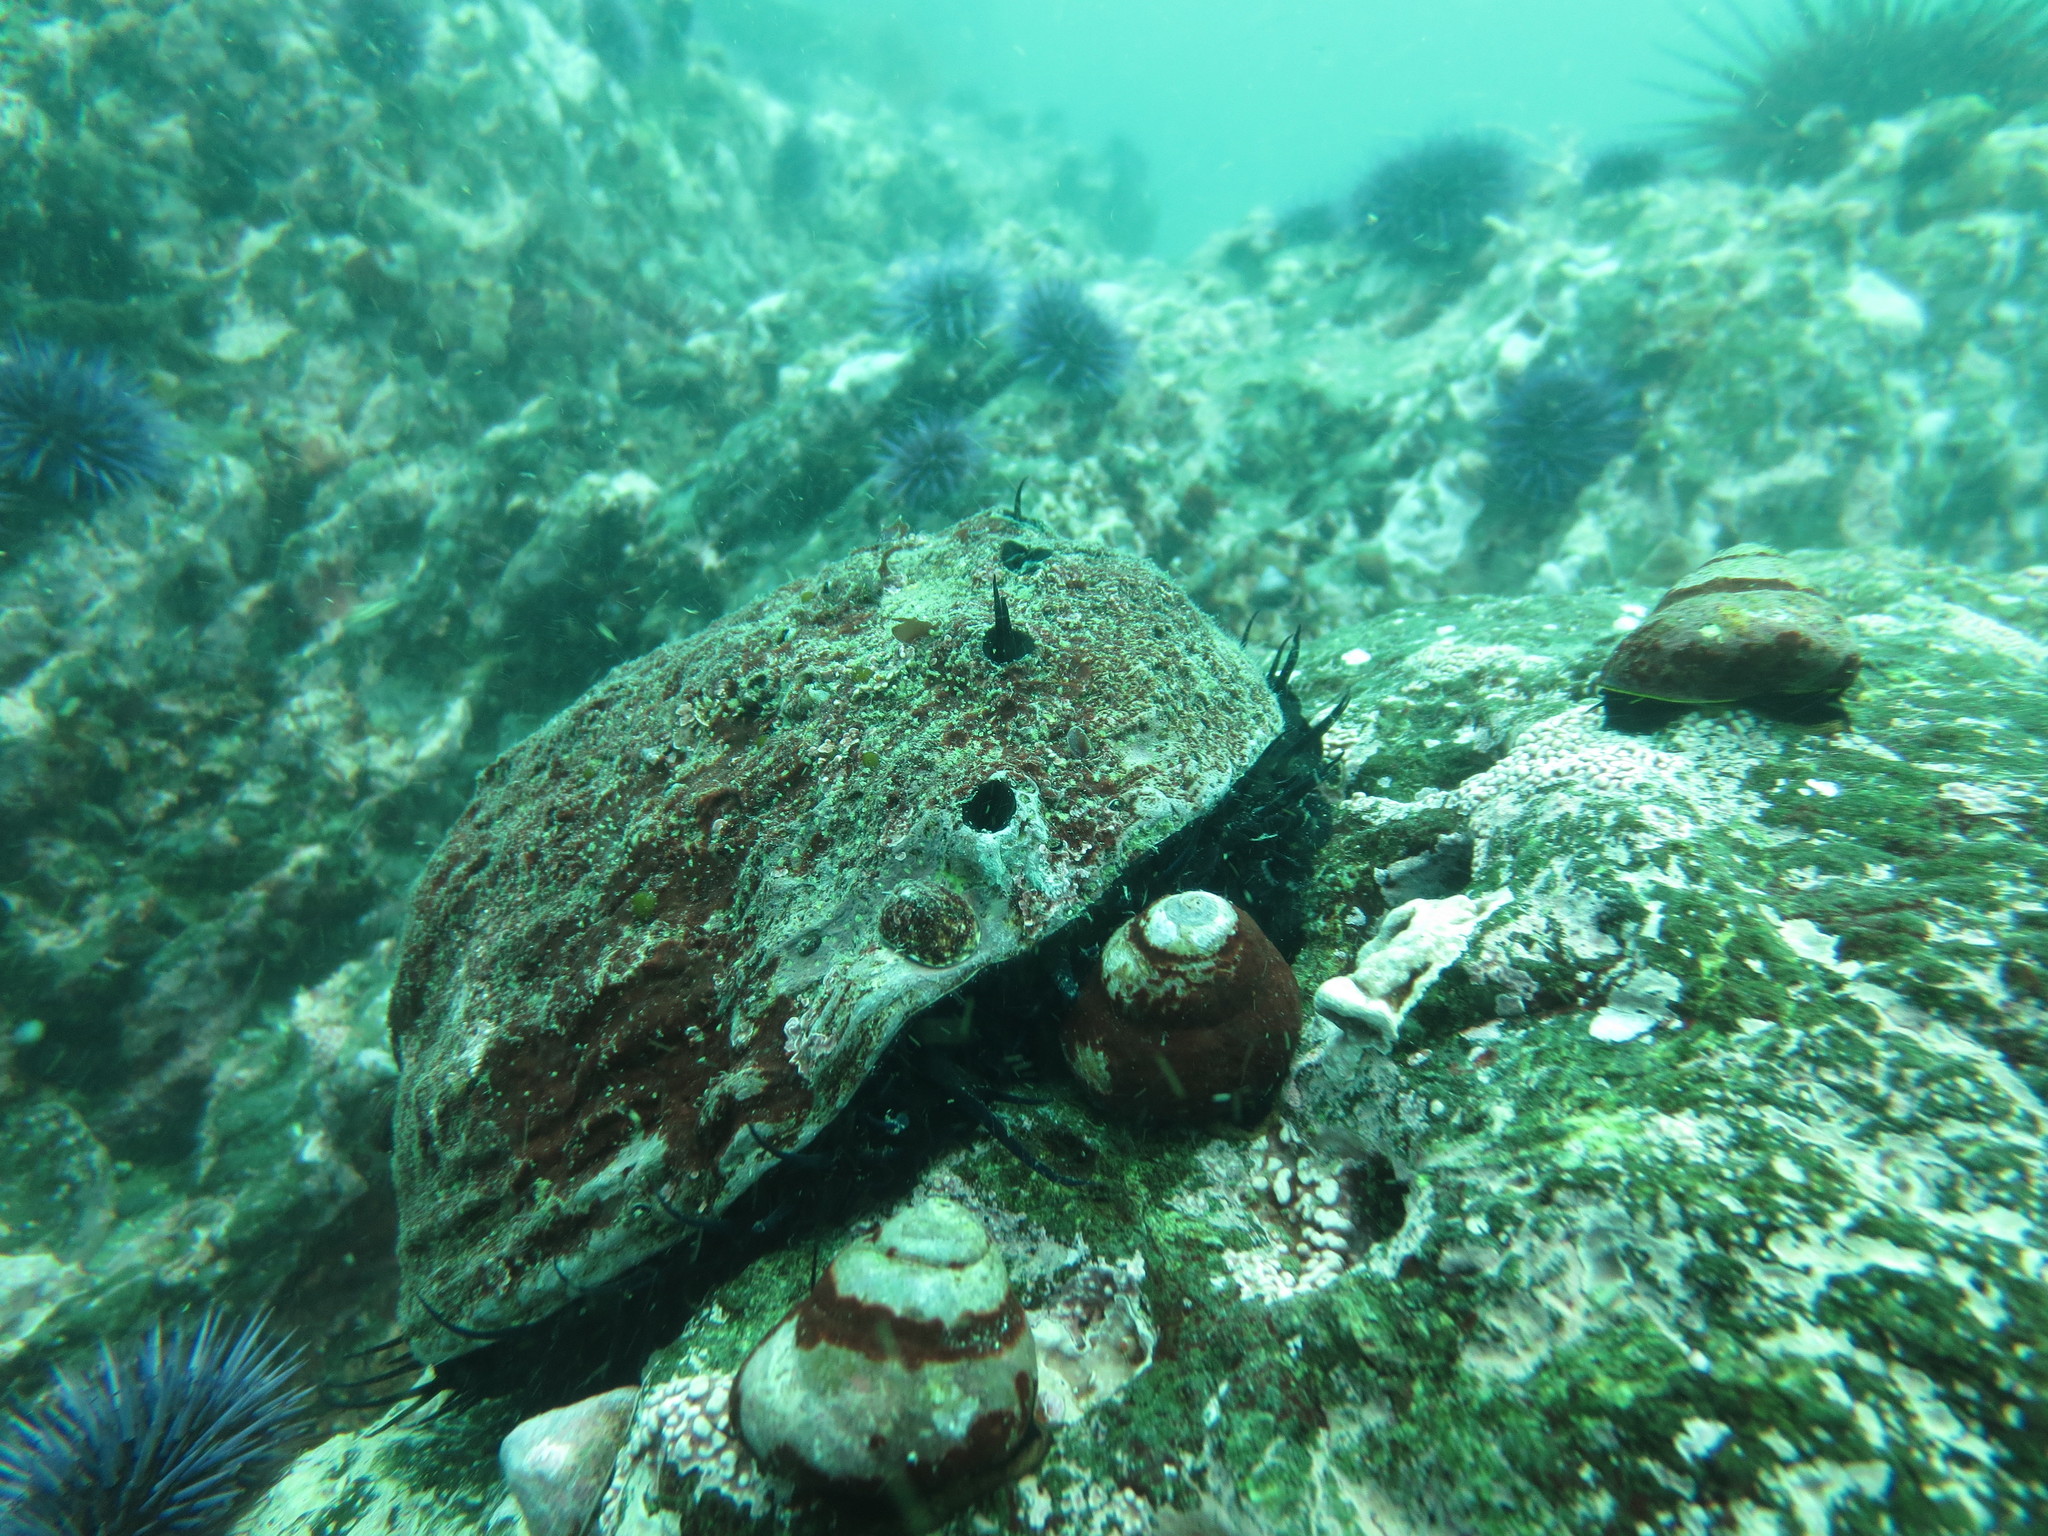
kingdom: Animalia
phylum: Mollusca
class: Gastropoda
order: Lepetellida
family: Haliotidae
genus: Haliotis
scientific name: Haliotis rufescens
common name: Red abalone
